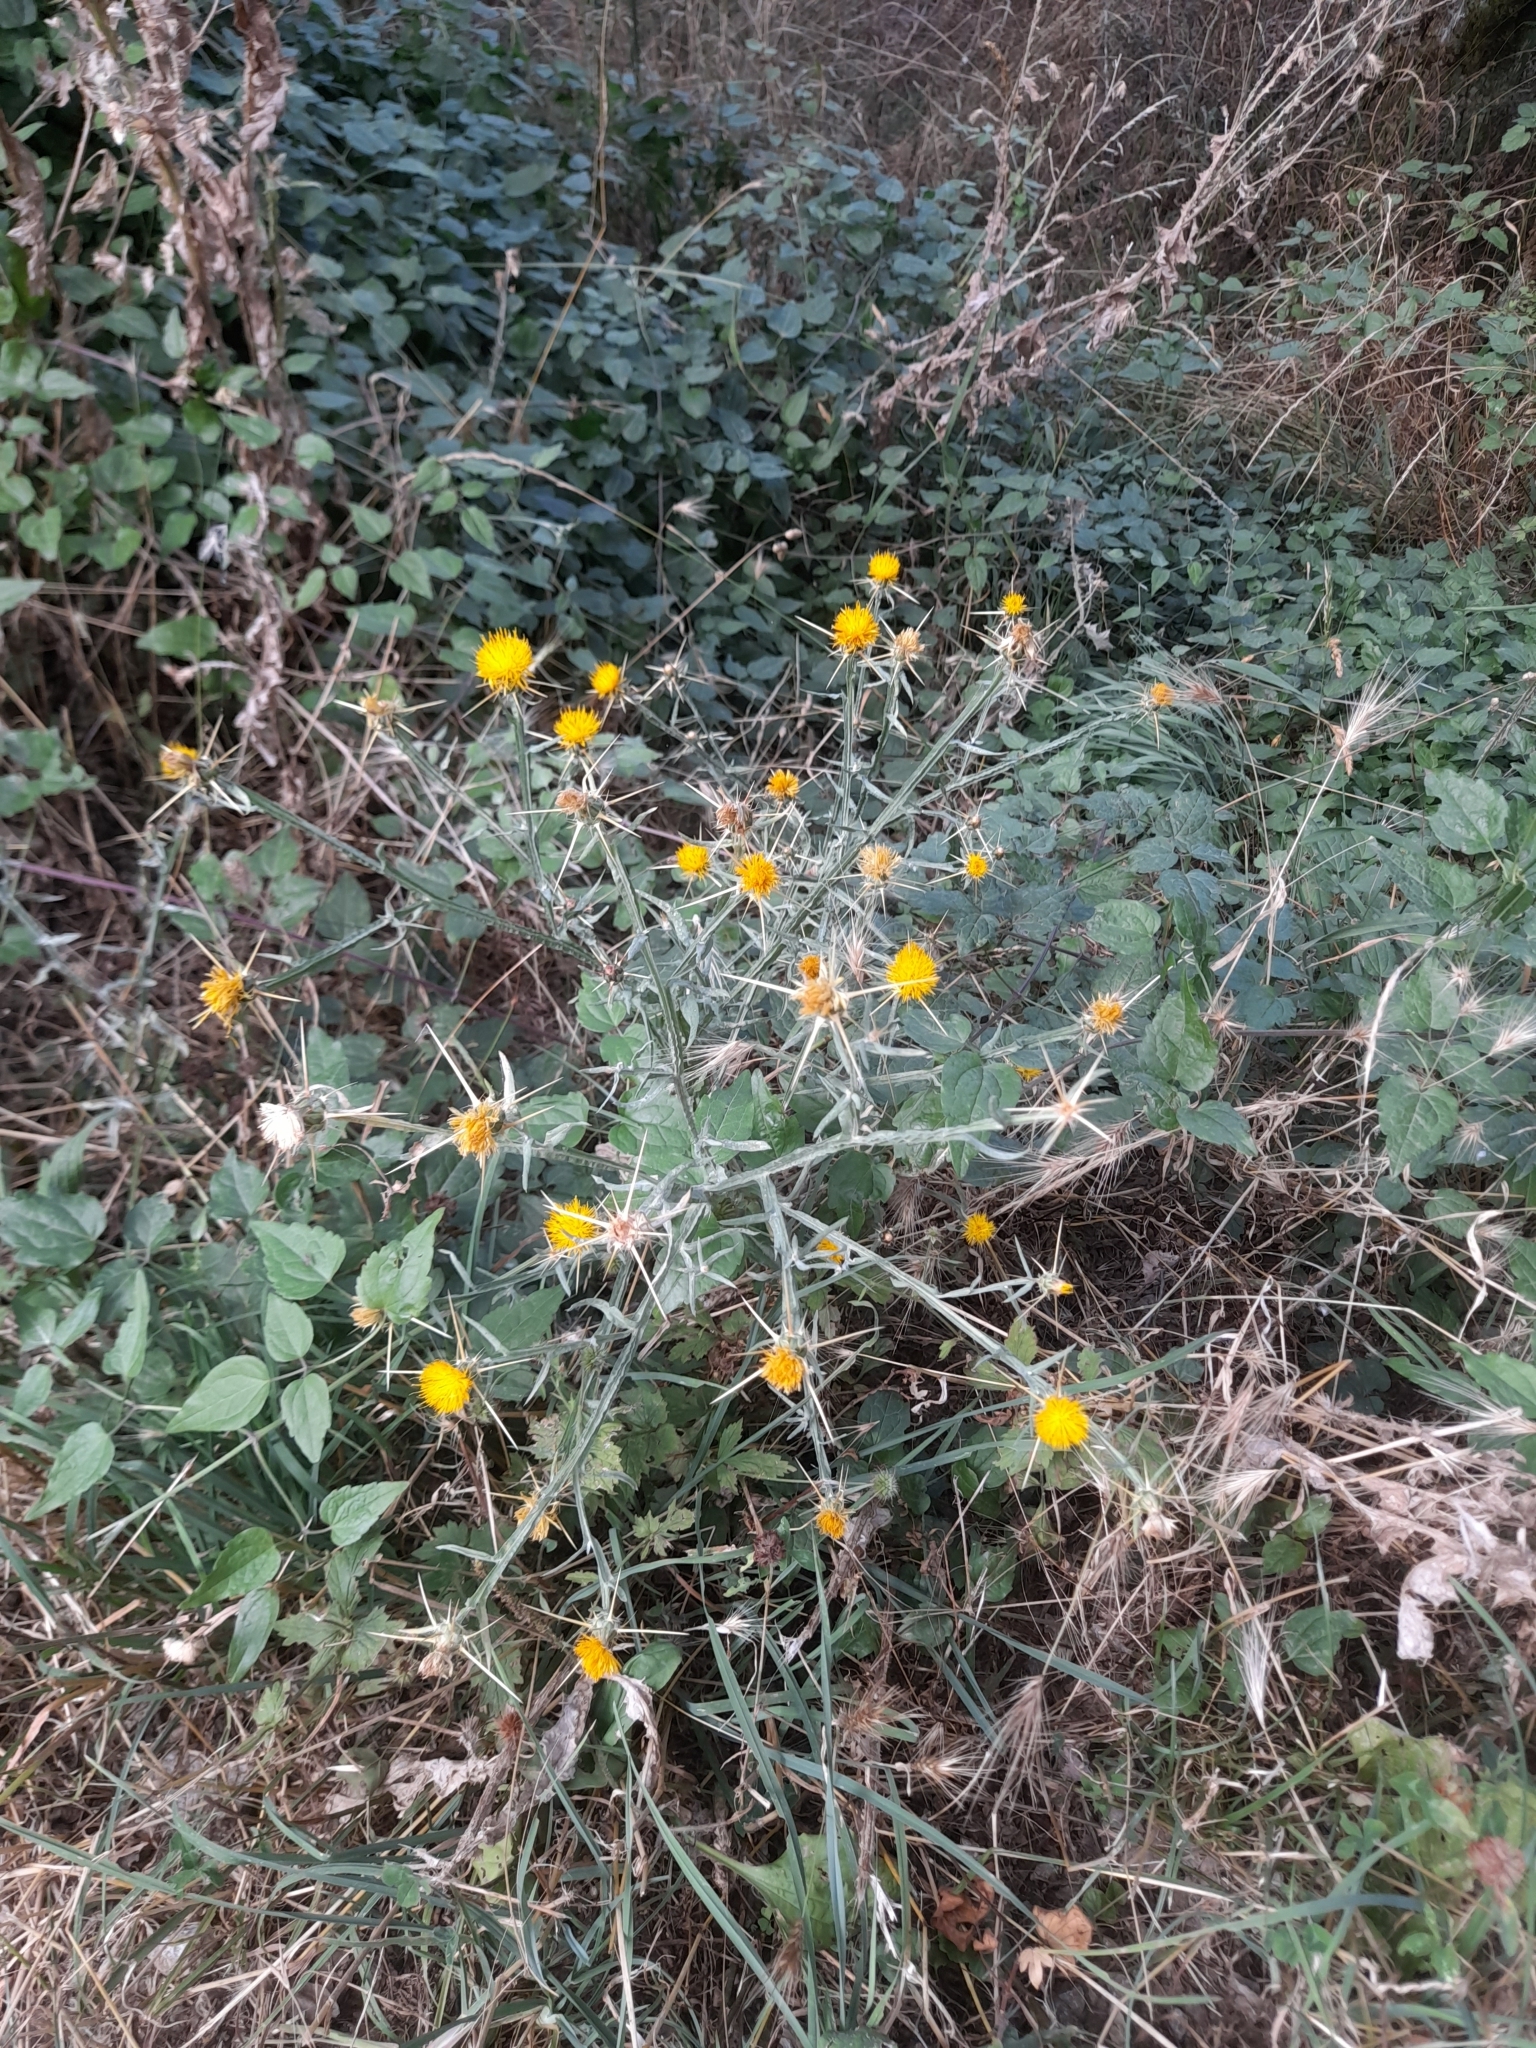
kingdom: Plantae
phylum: Tracheophyta
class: Magnoliopsida
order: Asterales
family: Asteraceae
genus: Centaurea
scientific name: Centaurea solstitialis
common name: Yellow star-thistle
